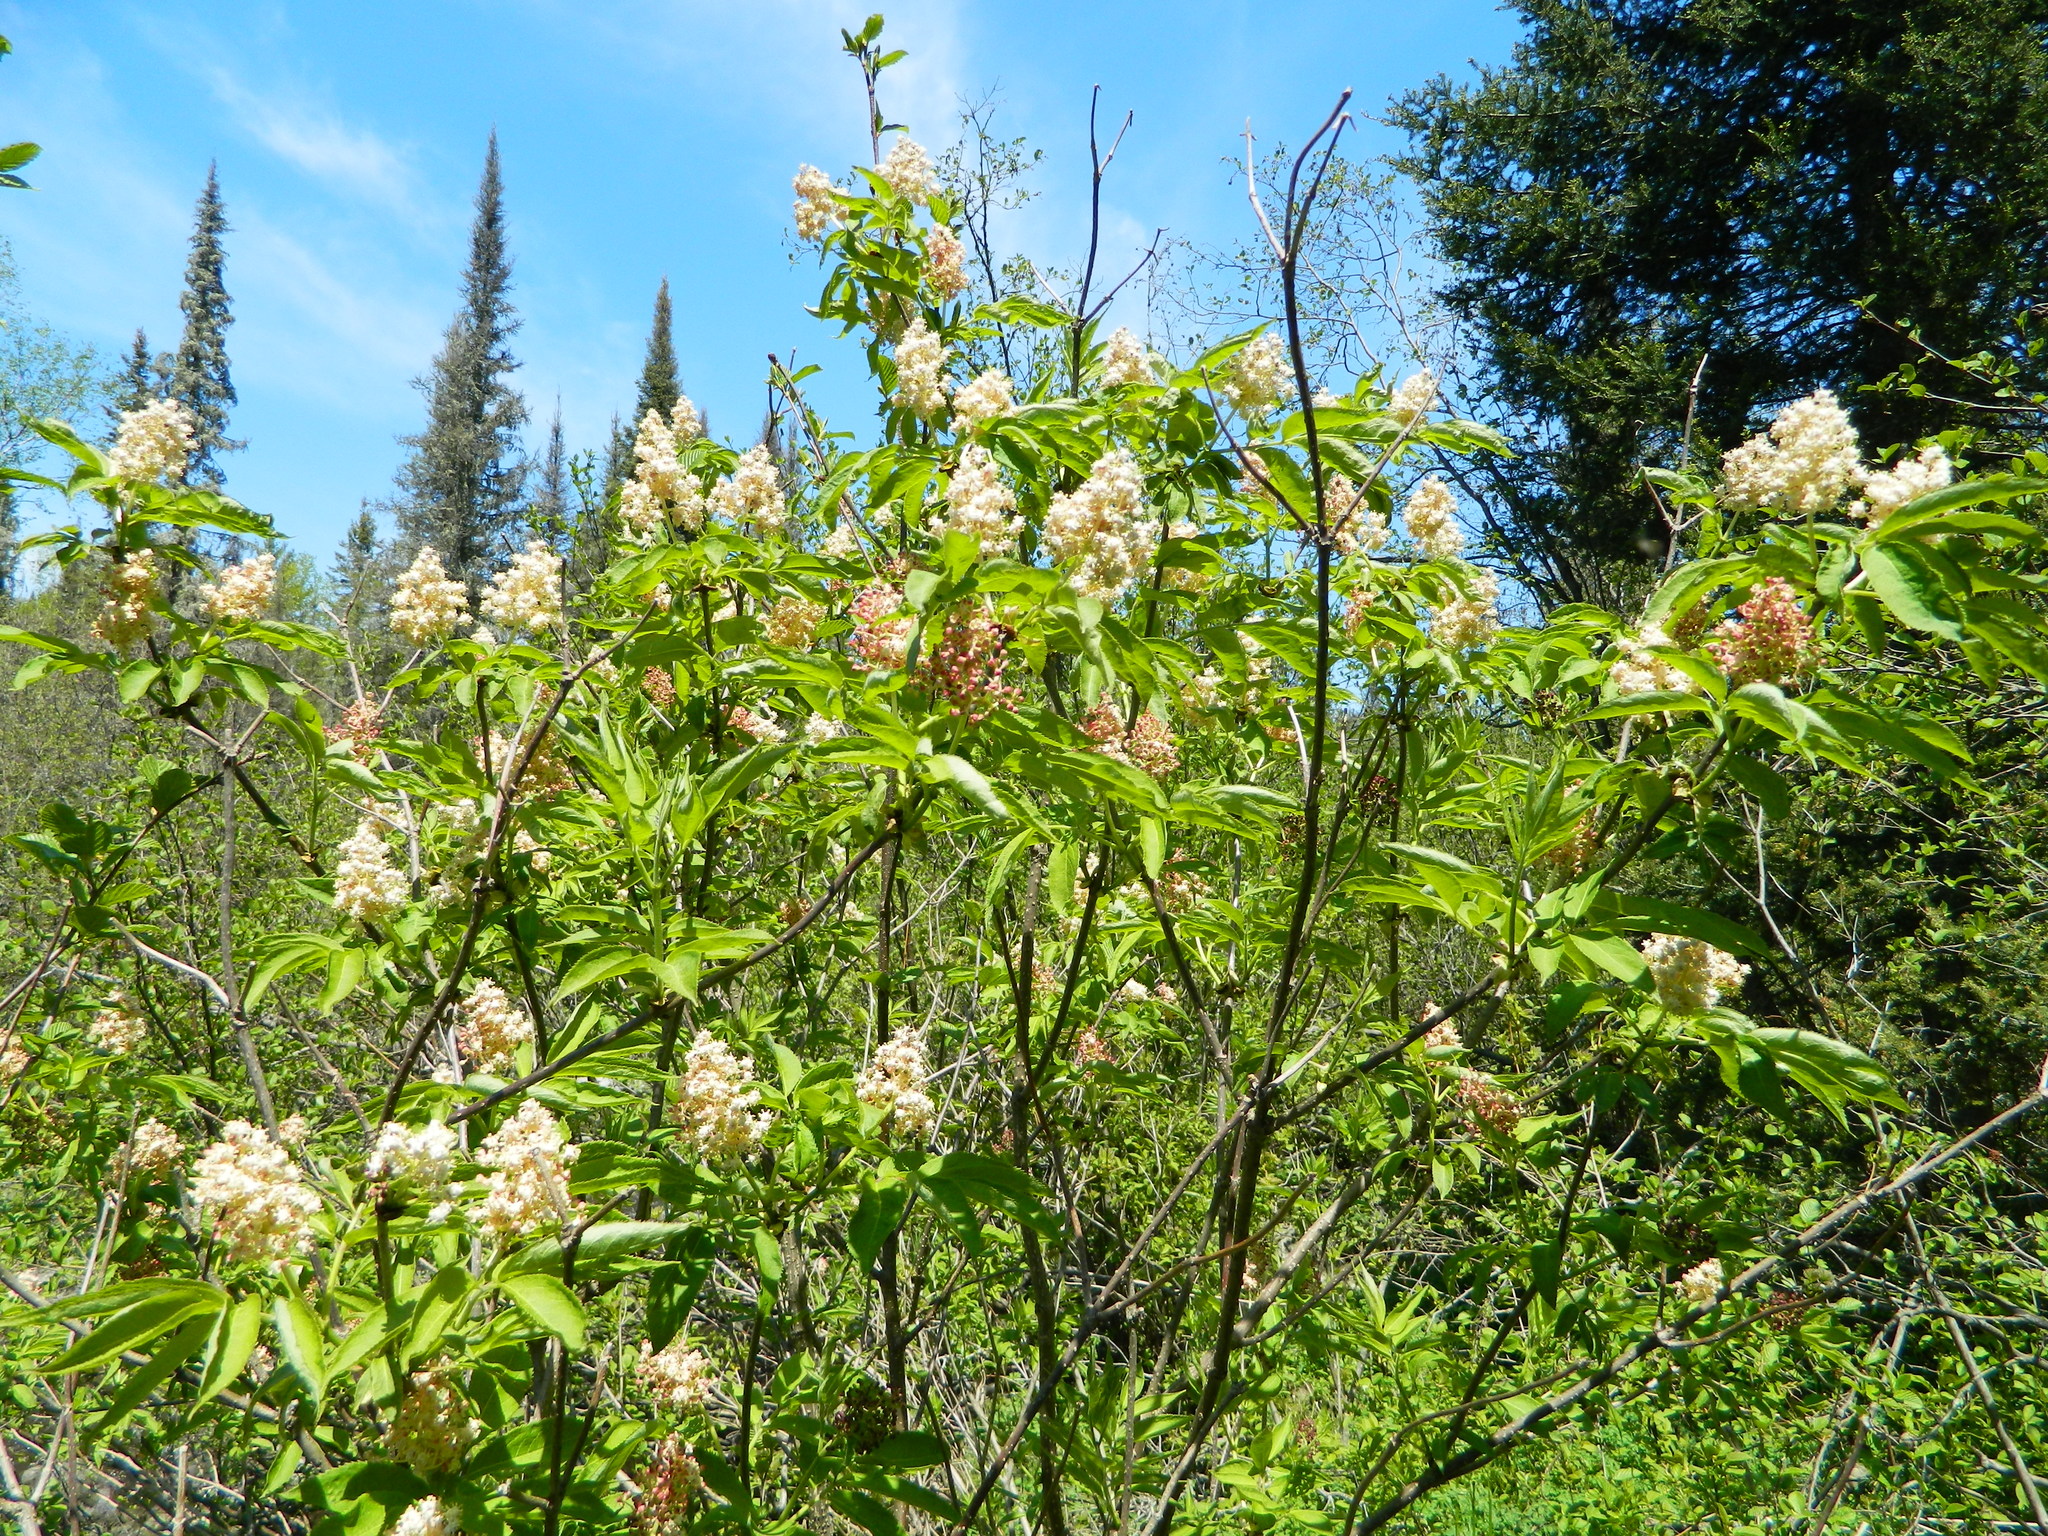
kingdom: Plantae
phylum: Tracheophyta
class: Magnoliopsida
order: Dipsacales
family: Viburnaceae
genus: Sambucus
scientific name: Sambucus racemosa
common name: Red-berried elder
